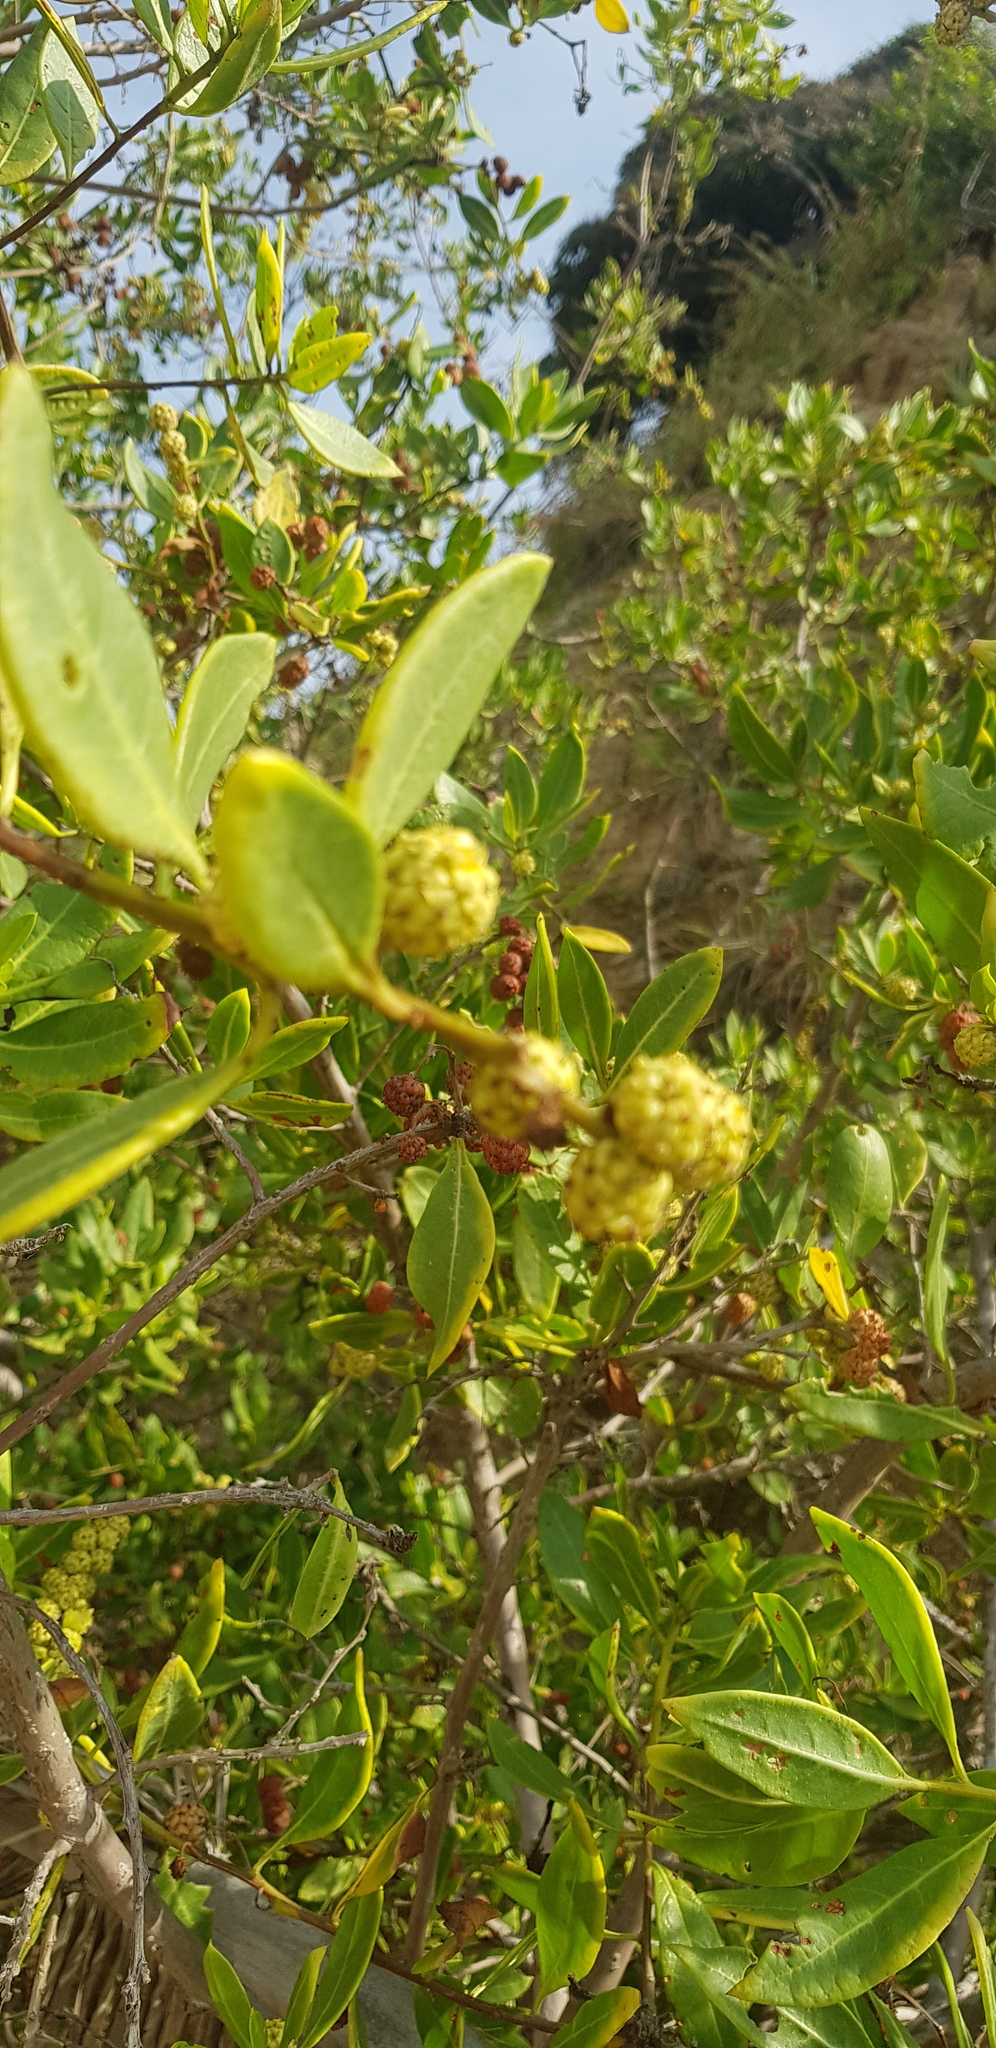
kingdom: Plantae
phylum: Tracheophyta
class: Magnoliopsida
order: Myrtales
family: Combretaceae
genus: Conocarpus
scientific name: Conocarpus erectus
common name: Button mangrove
